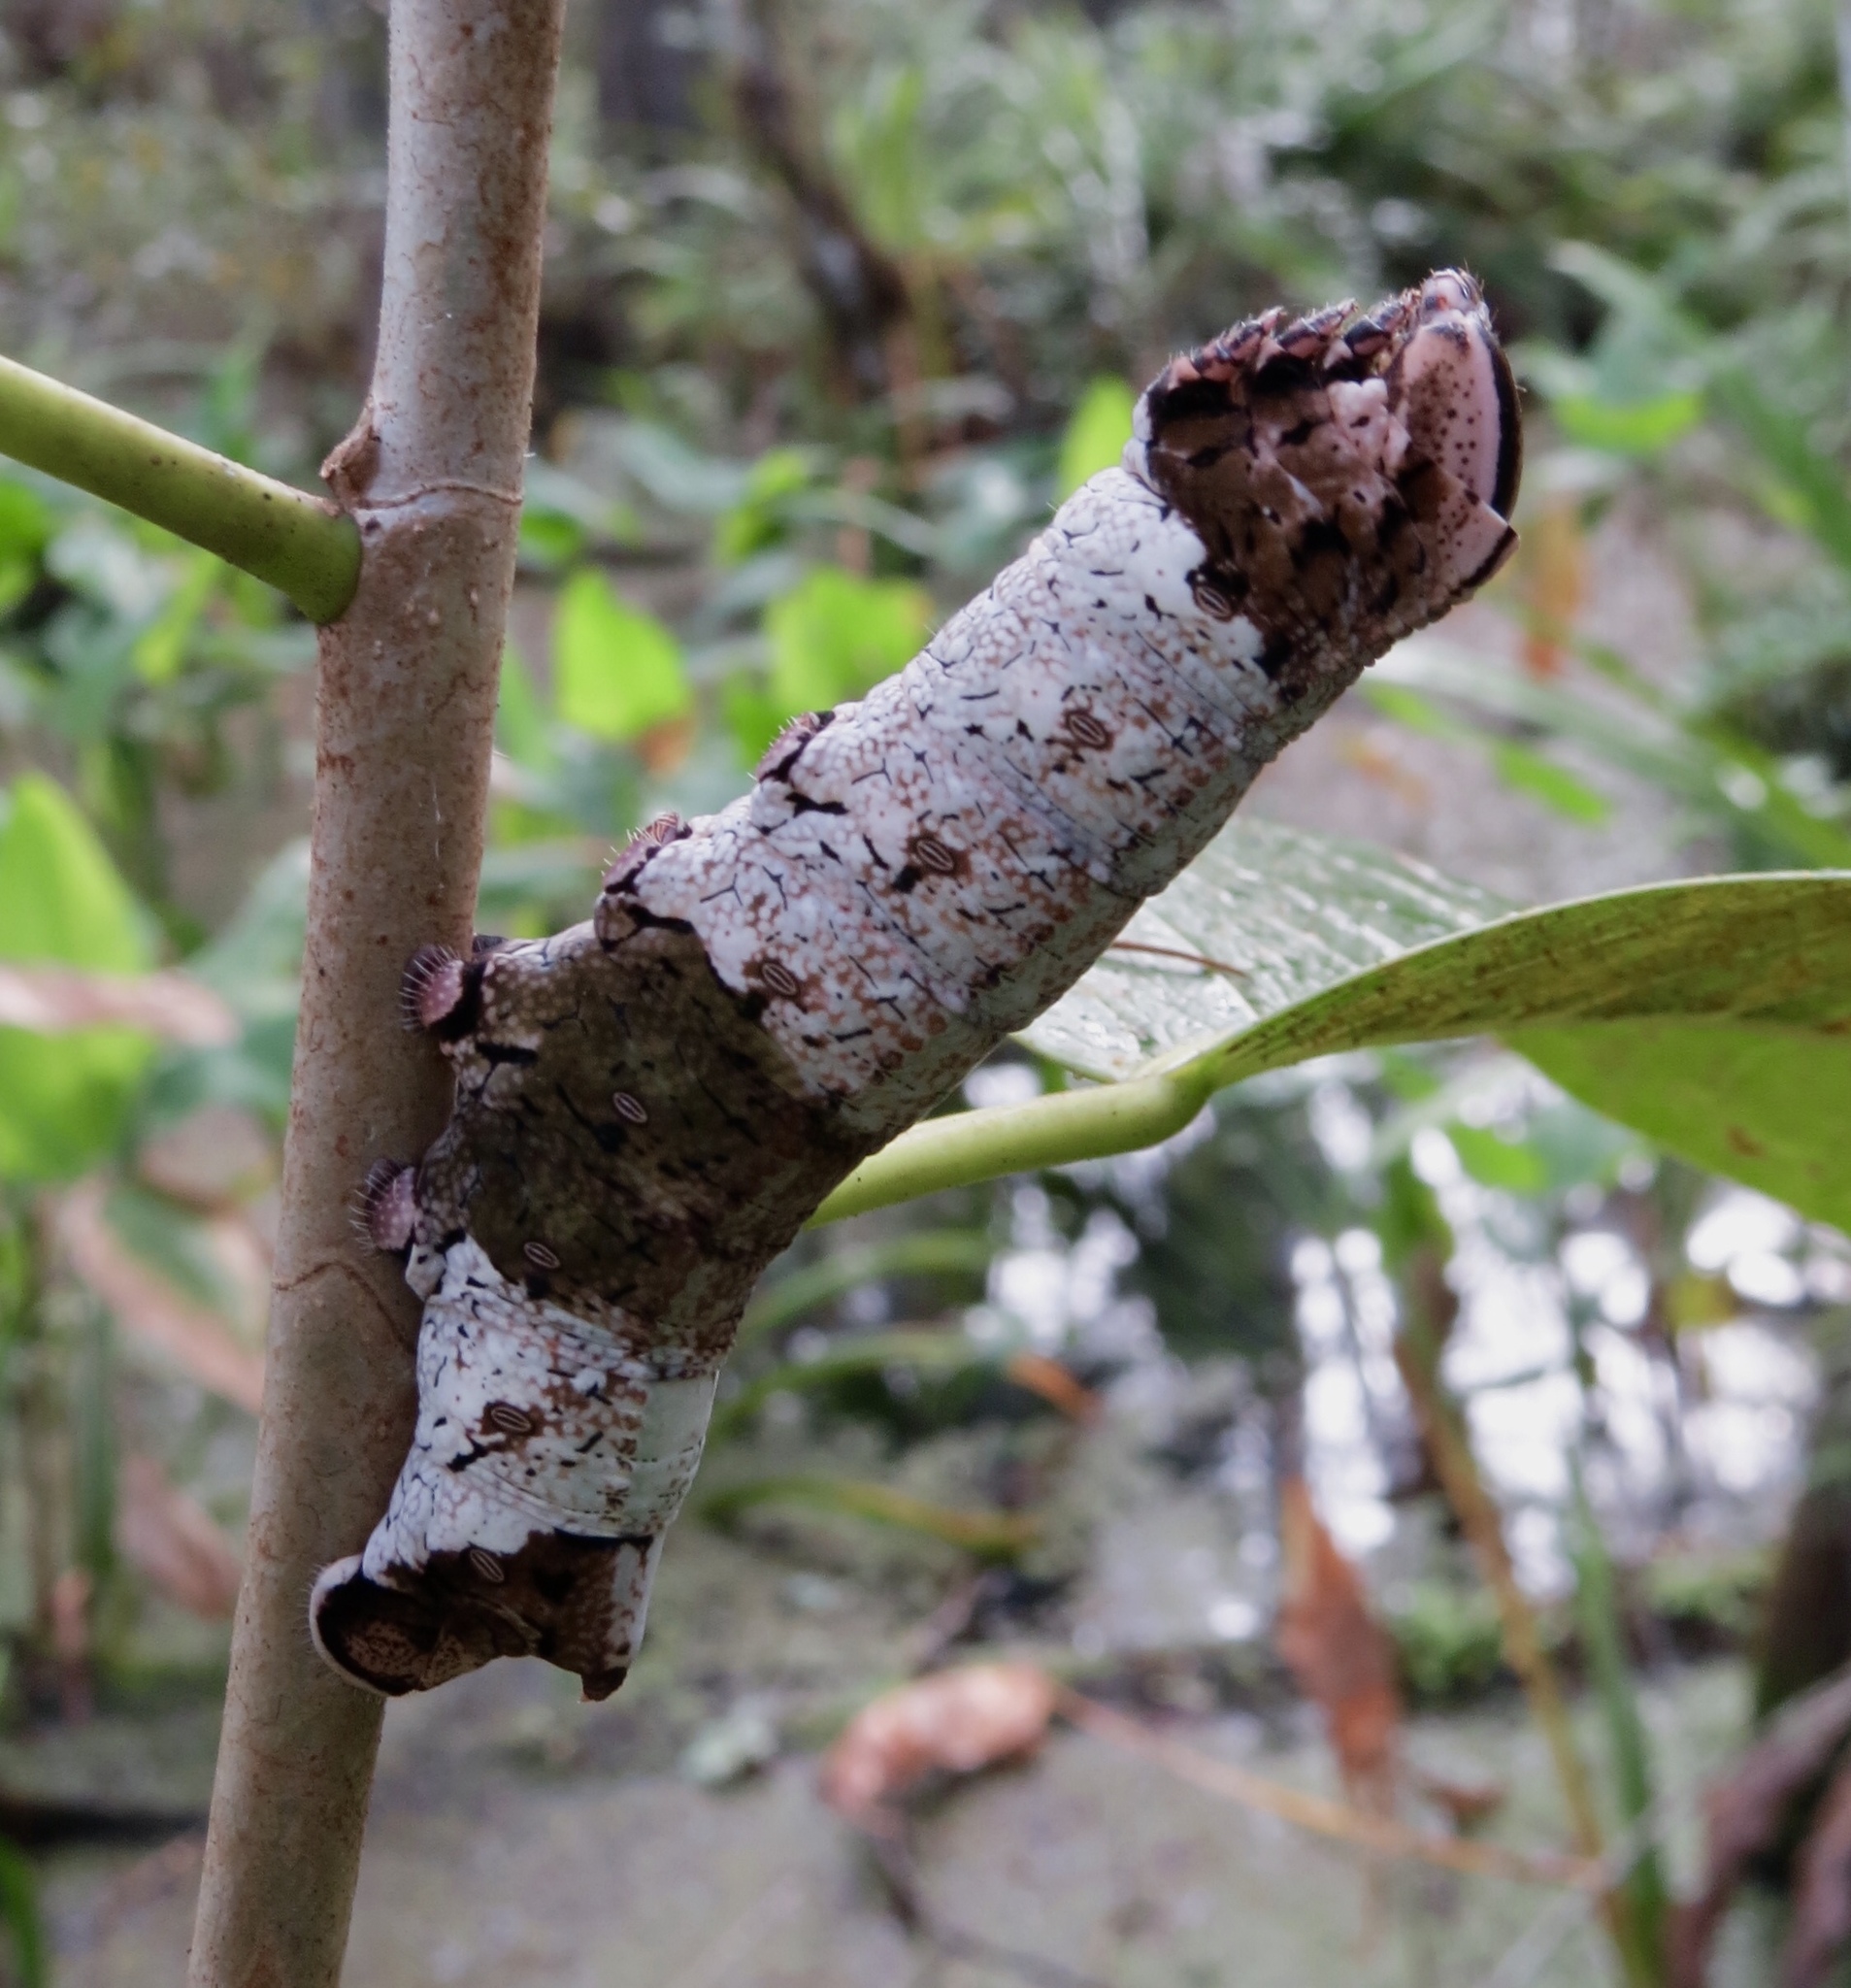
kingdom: Animalia
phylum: Arthropoda
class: Insecta
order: Lepidoptera
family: Sphingidae
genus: Pachylia
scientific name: Pachylia ficus
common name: Fig sphinx
